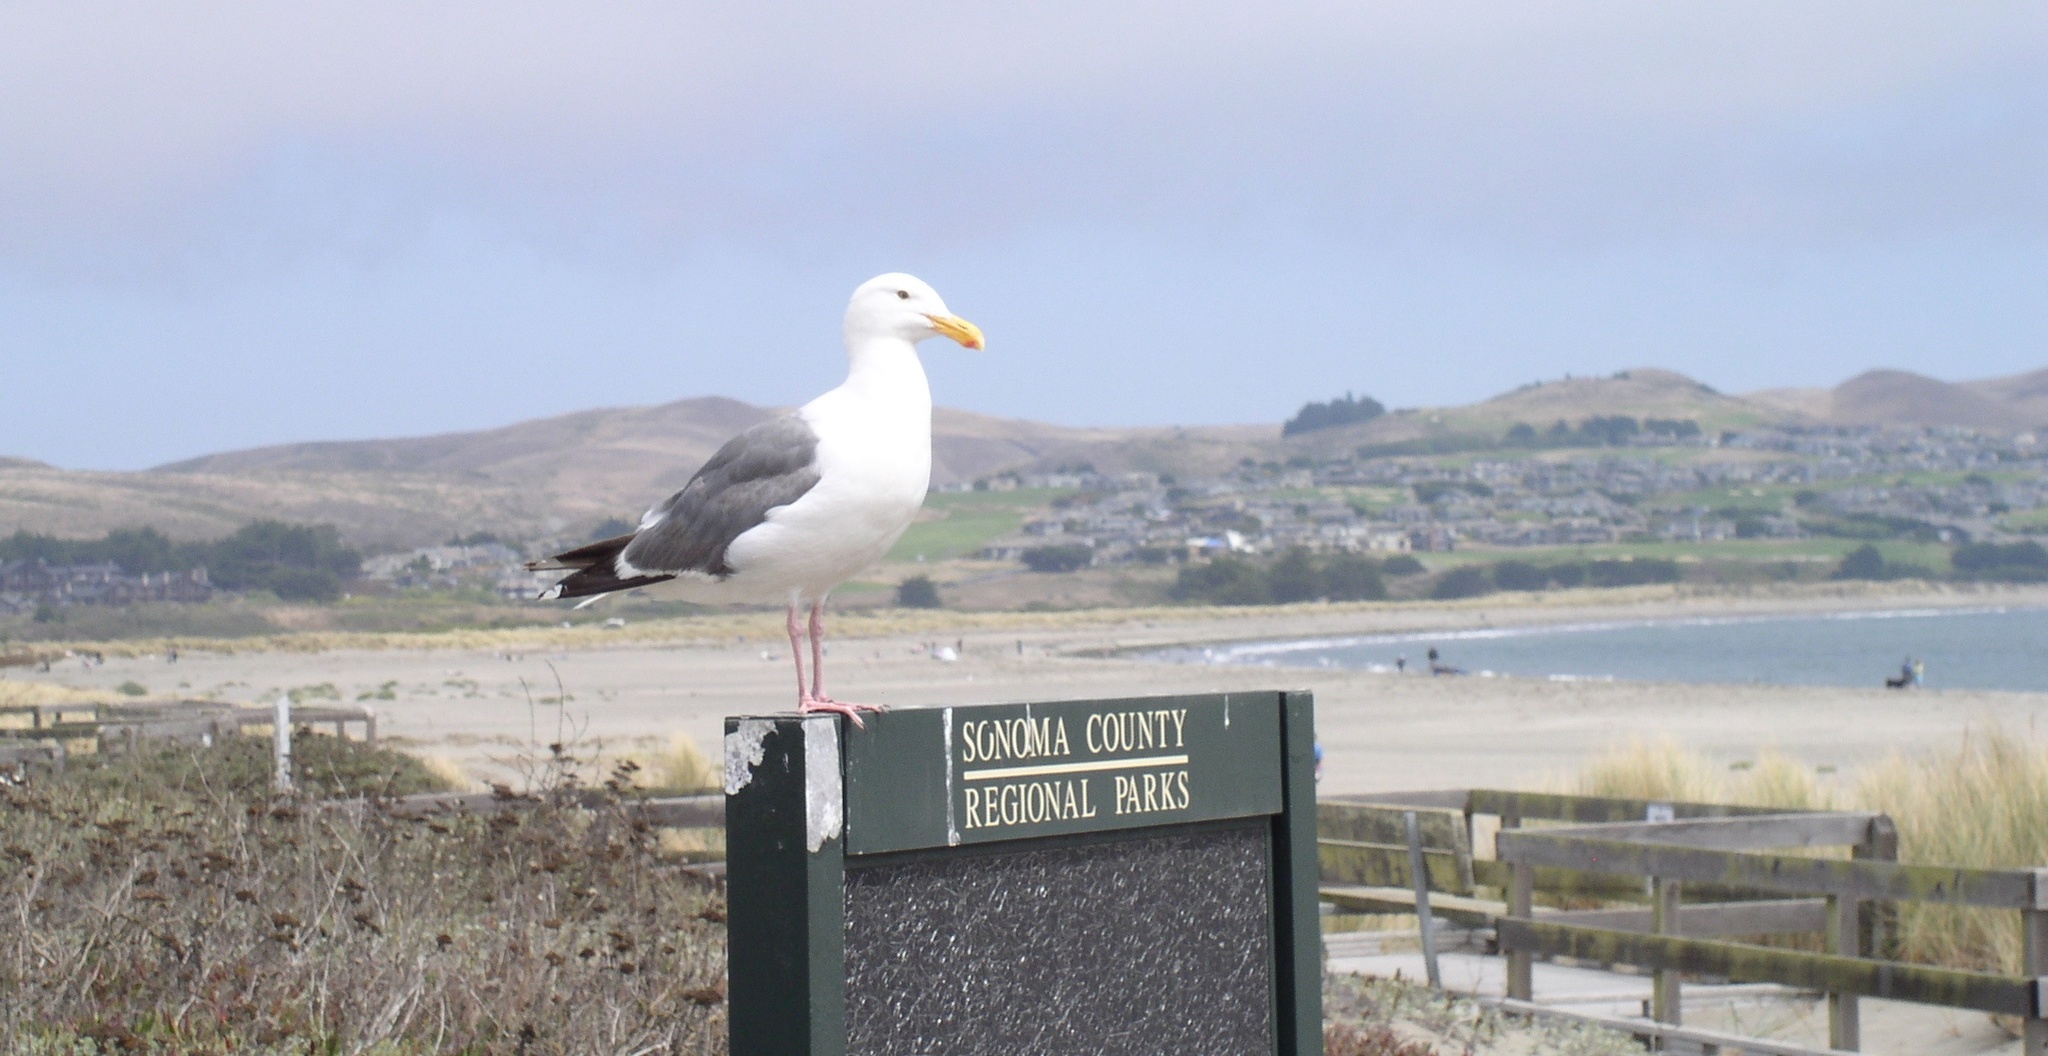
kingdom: Animalia
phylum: Chordata
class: Aves
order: Charadriiformes
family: Laridae
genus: Larus
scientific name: Larus occidentalis
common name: Western gull
